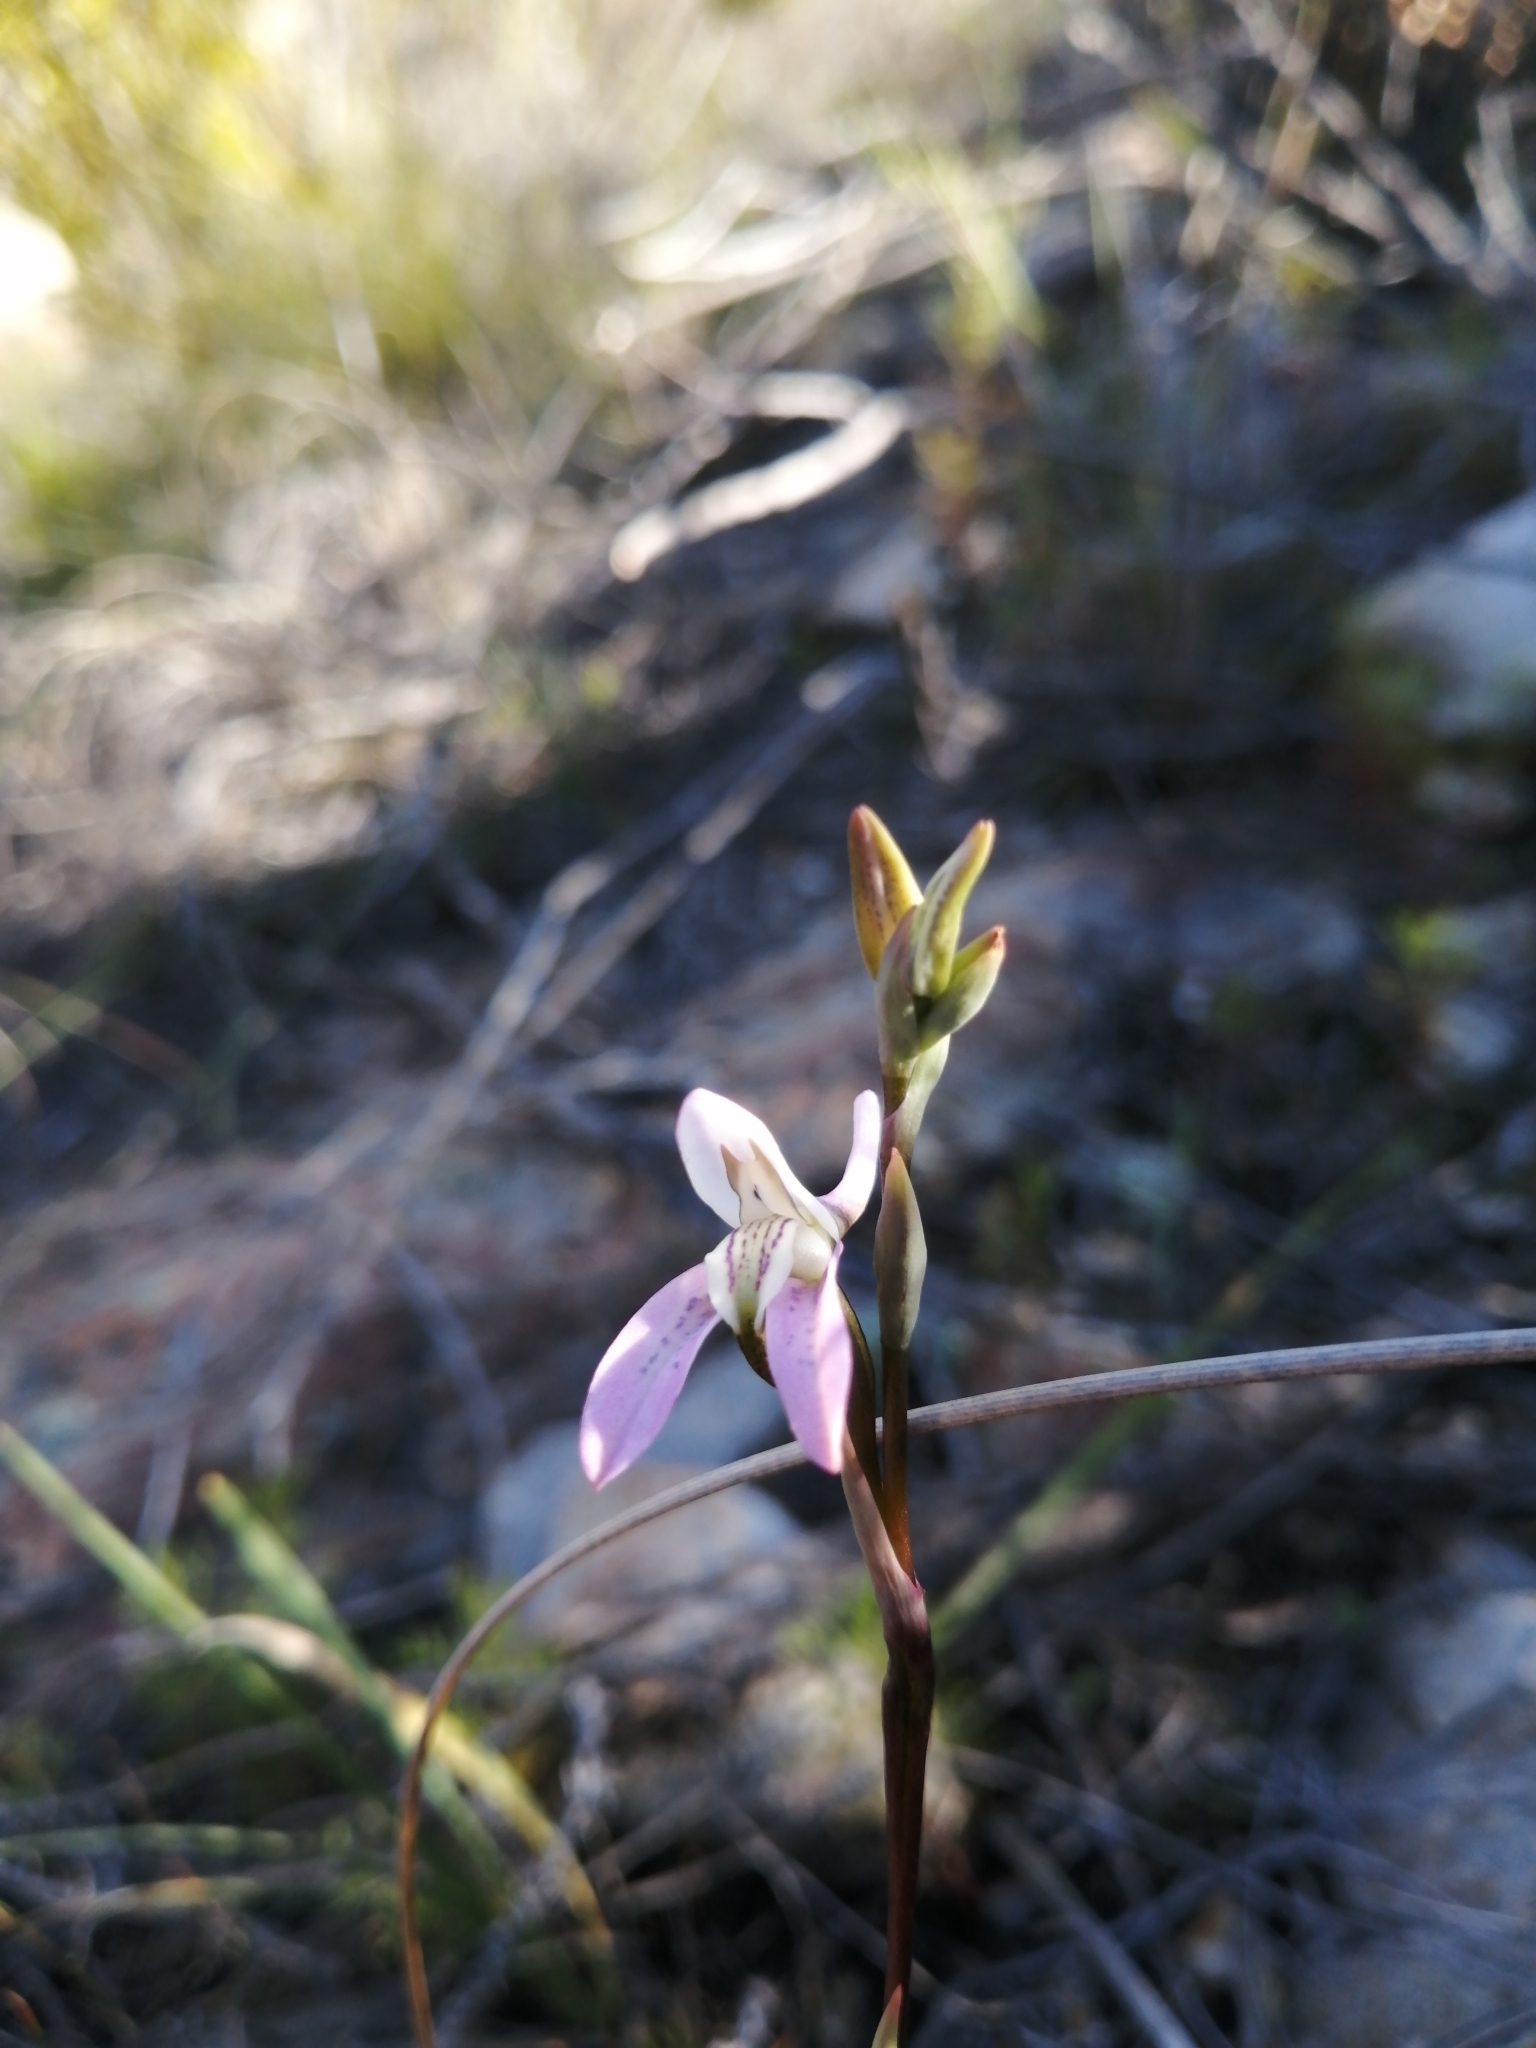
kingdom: Plantae
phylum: Tracheophyta
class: Liliopsida
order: Asparagales
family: Orchidaceae
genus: Disa
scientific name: Disa bifida
